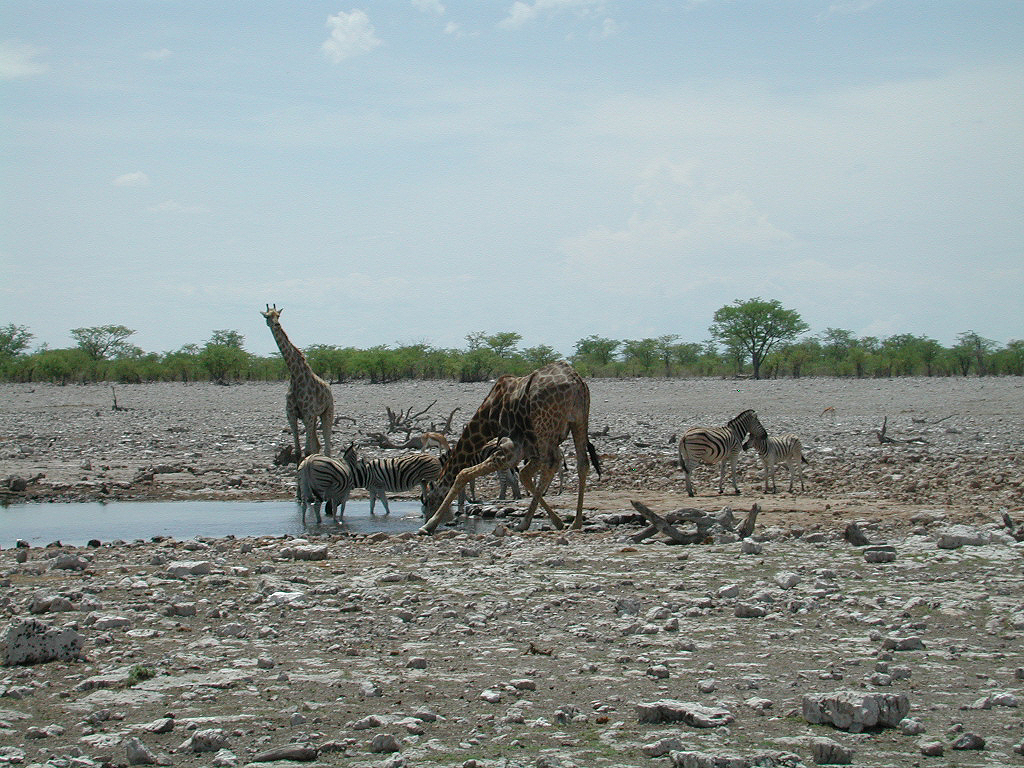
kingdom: Animalia
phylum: Chordata
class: Mammalia
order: Artiodactyla
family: Giraffidae
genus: Giraffa
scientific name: Giraffa giraffa
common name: Southern giraffe
